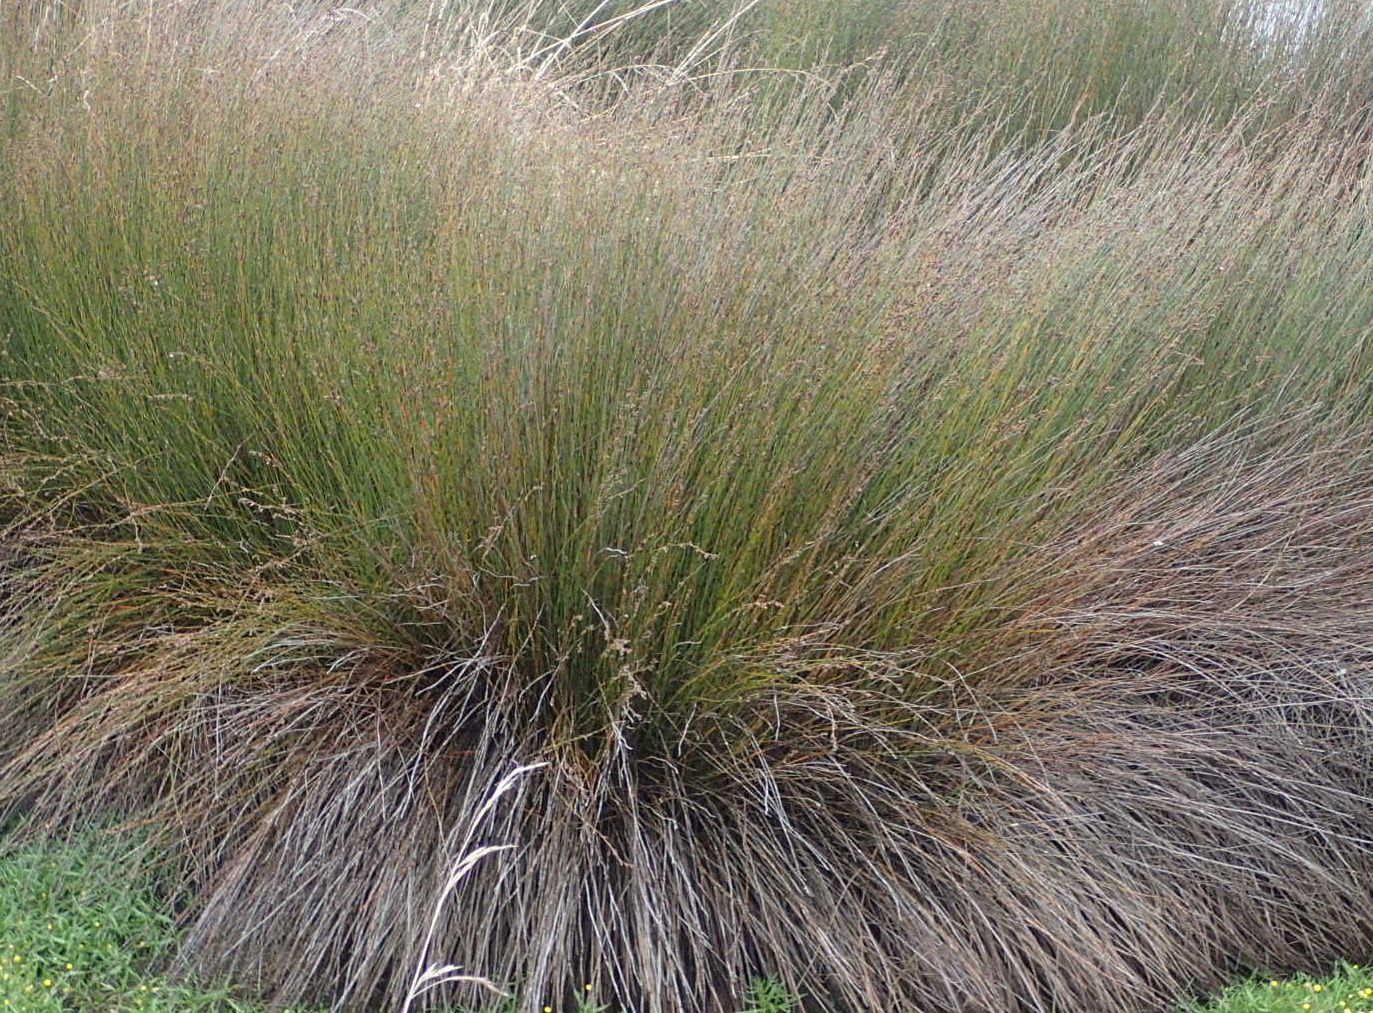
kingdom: Plantae
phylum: Tracheophyta
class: Liliopsida
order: Poales
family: Restionaceae
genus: Apodasmia
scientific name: Apodasmia similis
